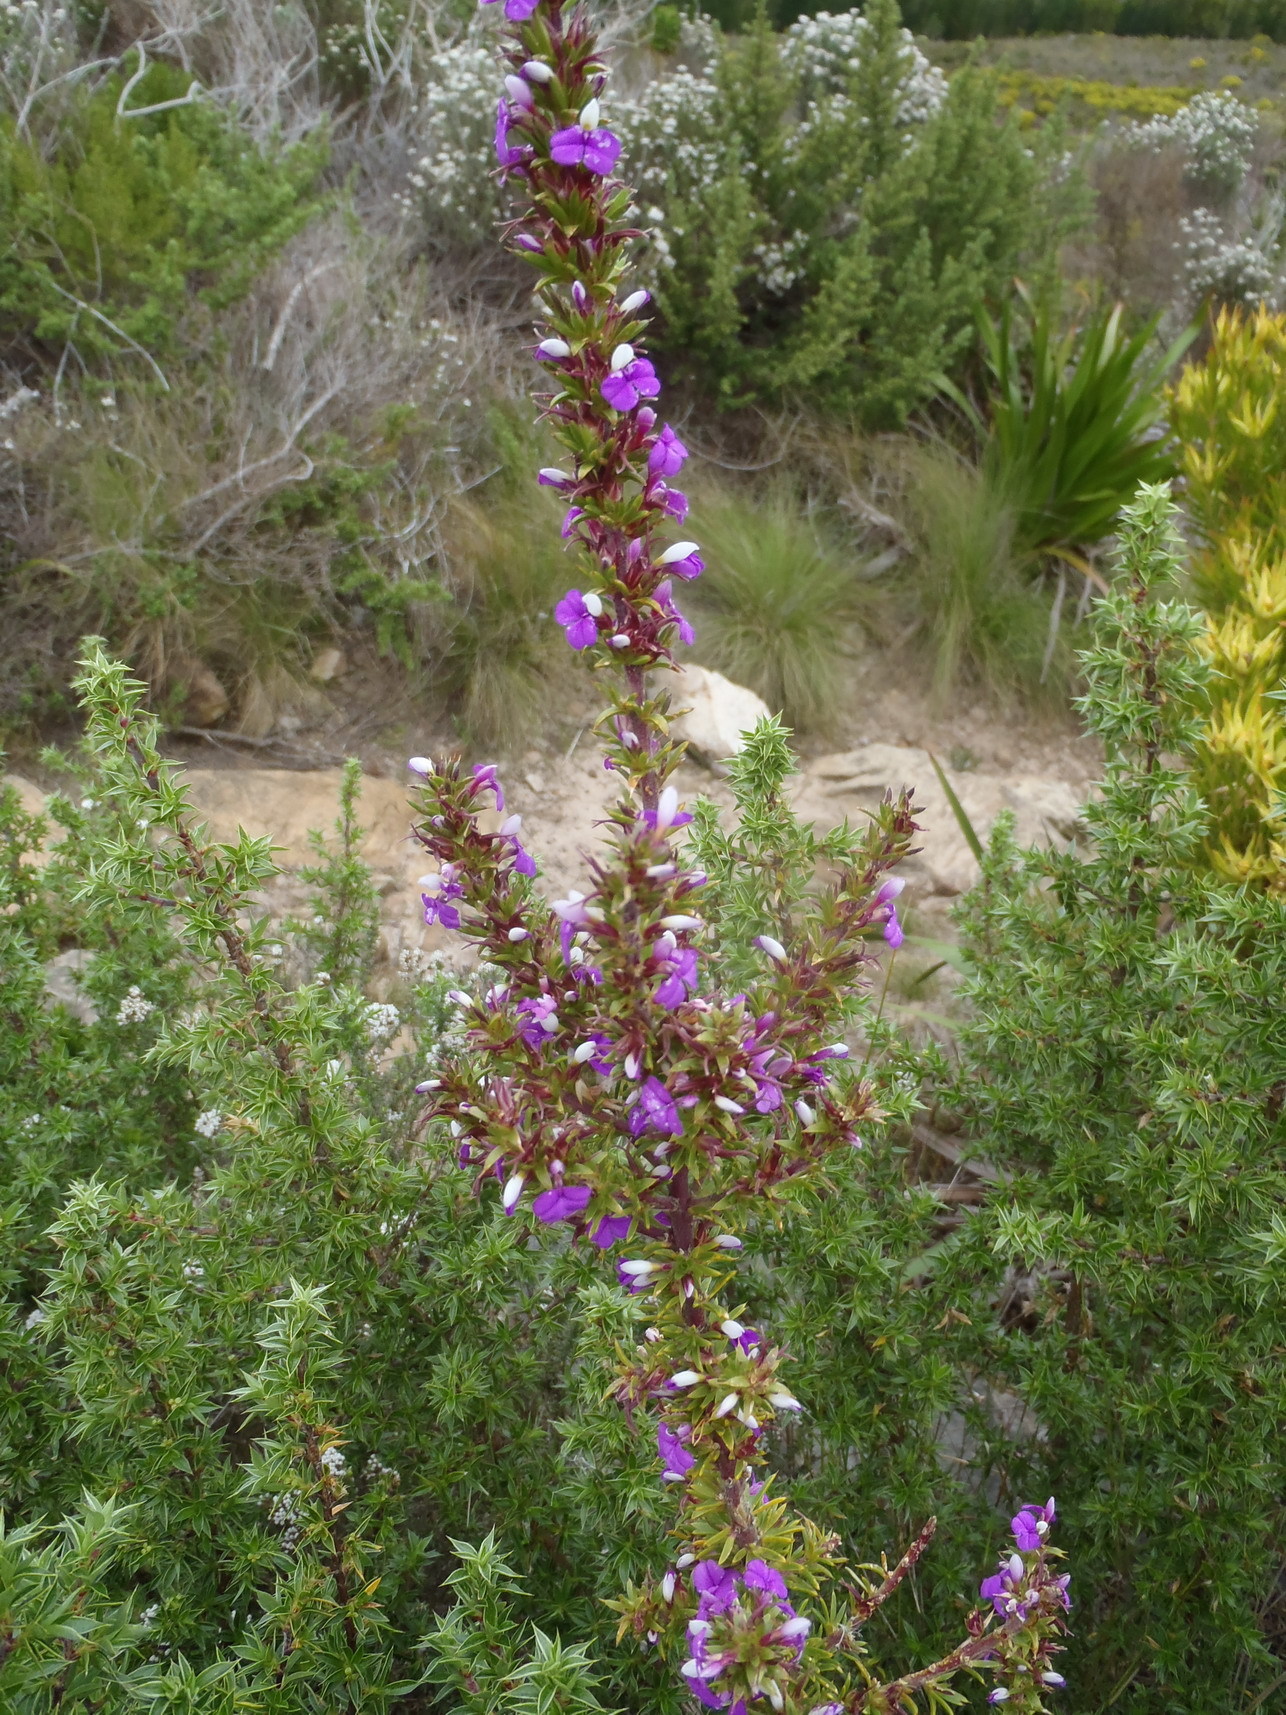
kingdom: Plantae
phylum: Tracheophyta
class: Magnoliopsida
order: Fabales
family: Polygalaceae
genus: Muraltia
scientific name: Muraltia heisteria
